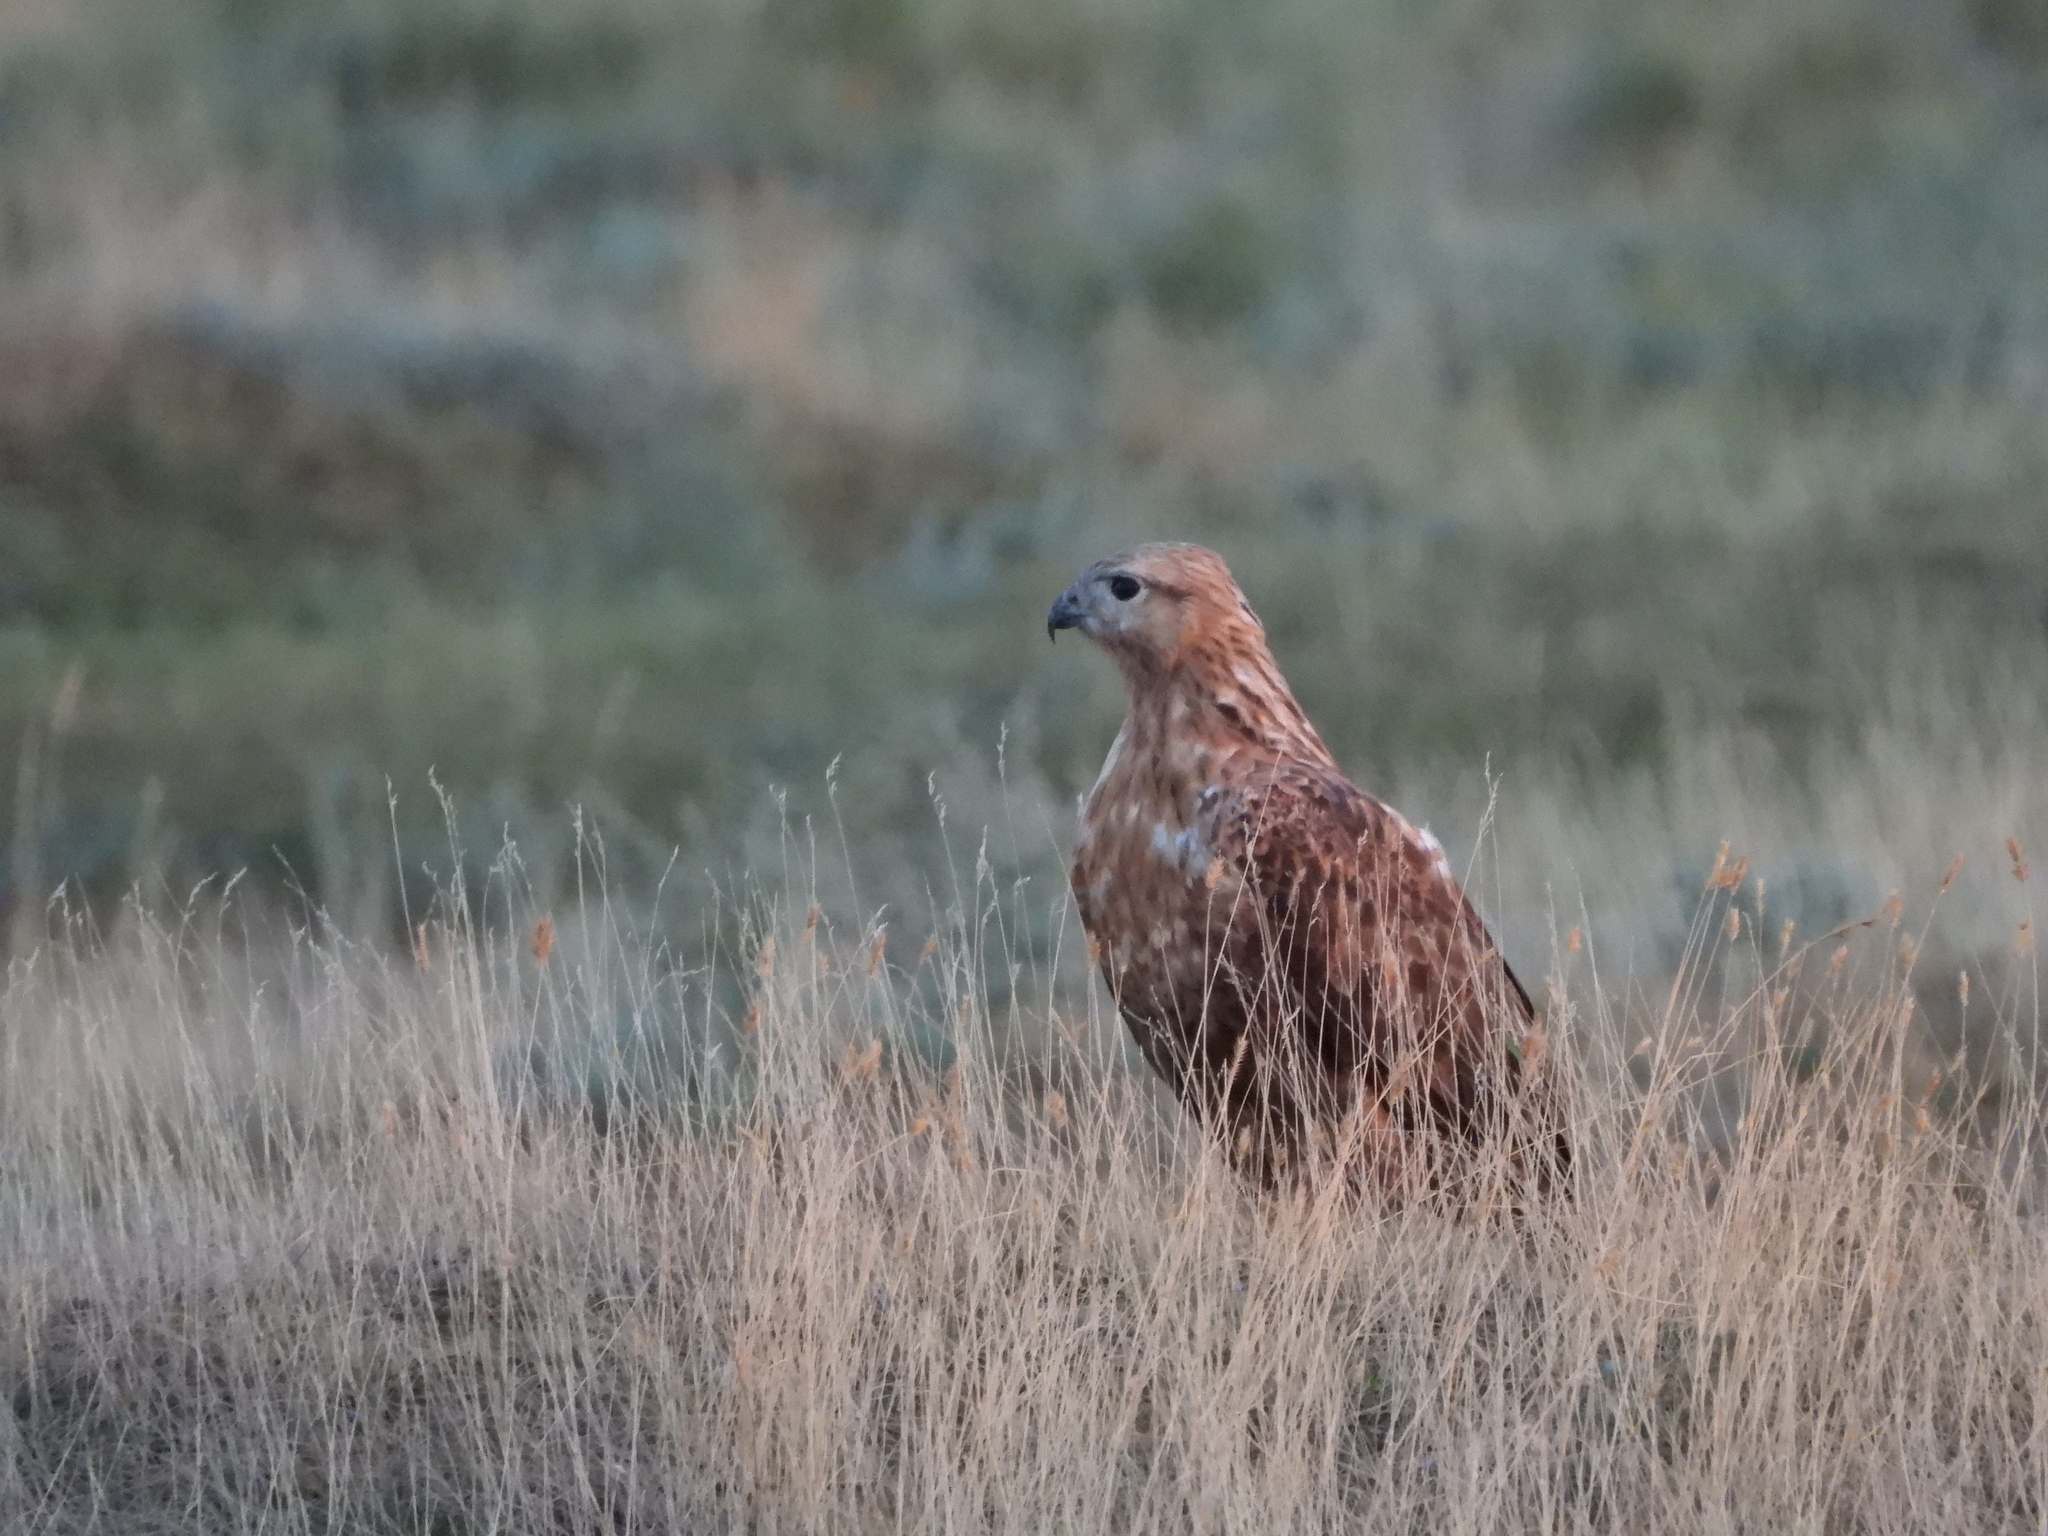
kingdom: Animalia
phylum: Chordata
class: Aves
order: Accipitriformes
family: Accipitridae
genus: Buteo
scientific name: Buteo rufinus
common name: Long-legged buzzard
